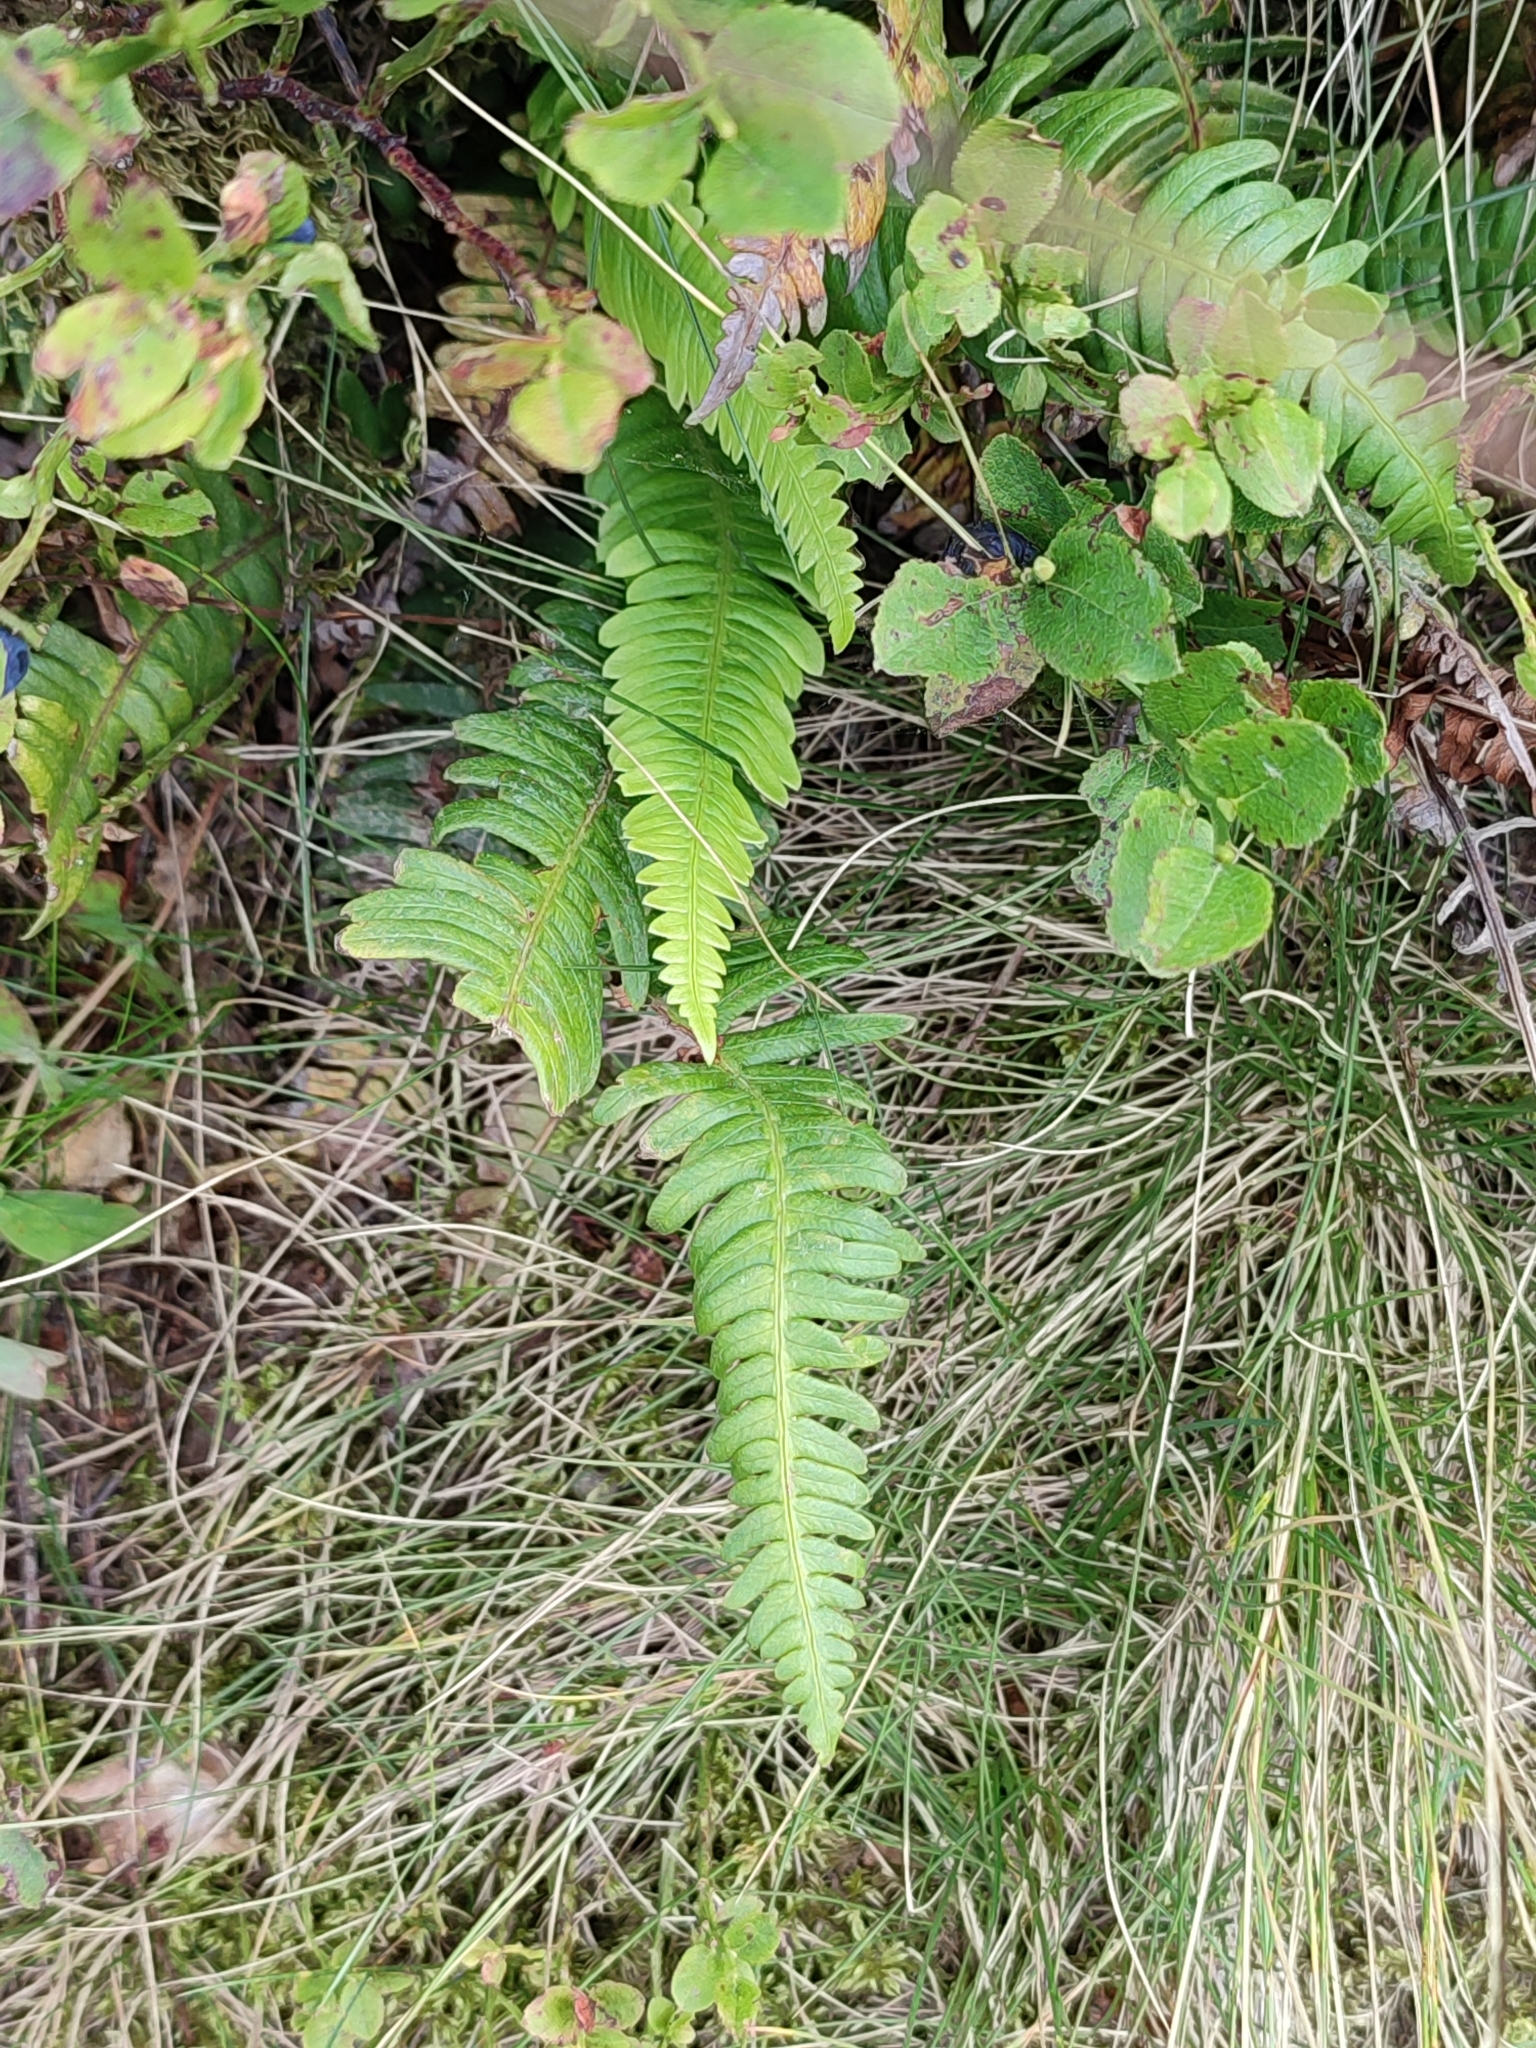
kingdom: Plantae
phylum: Tracheophyta
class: Polypodiopsida
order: Polypodiales
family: Blechnaceae
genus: Struthiopteris
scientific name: Struthiopteris spicant
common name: Deer fern
